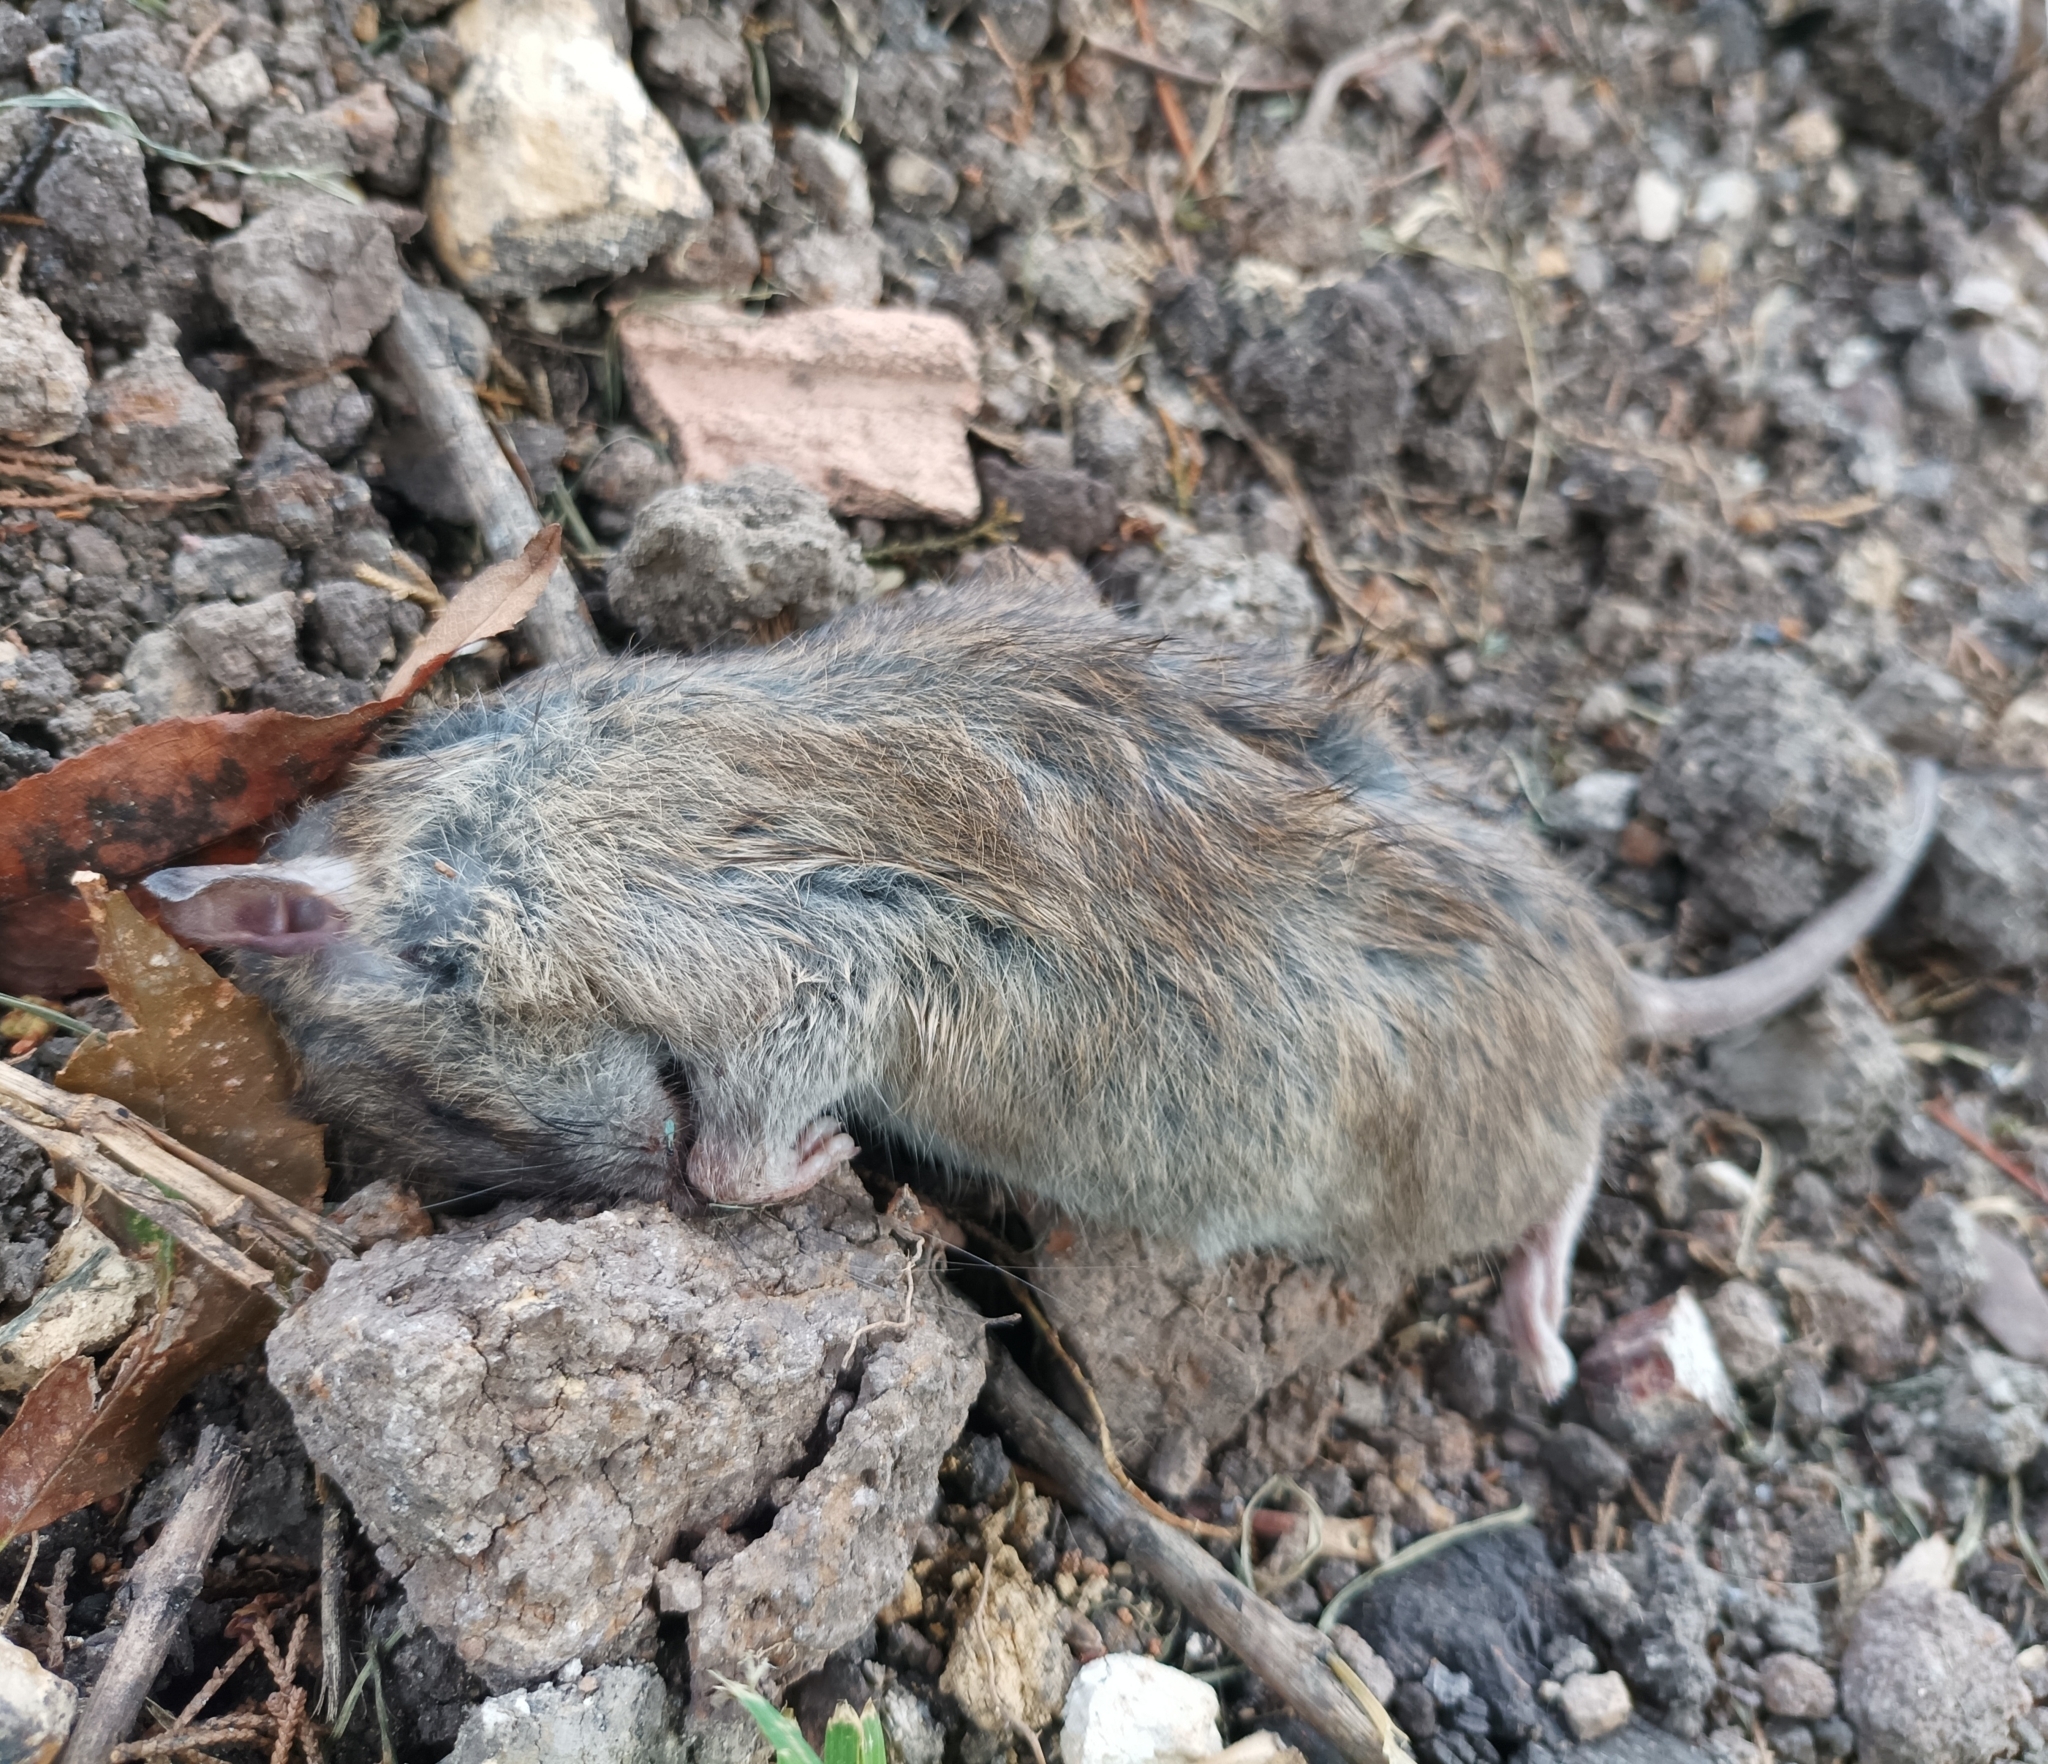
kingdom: Animalia
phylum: Chordata
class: Mammalia
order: Rodentia
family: Muridae
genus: Rattus
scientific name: Rattus
